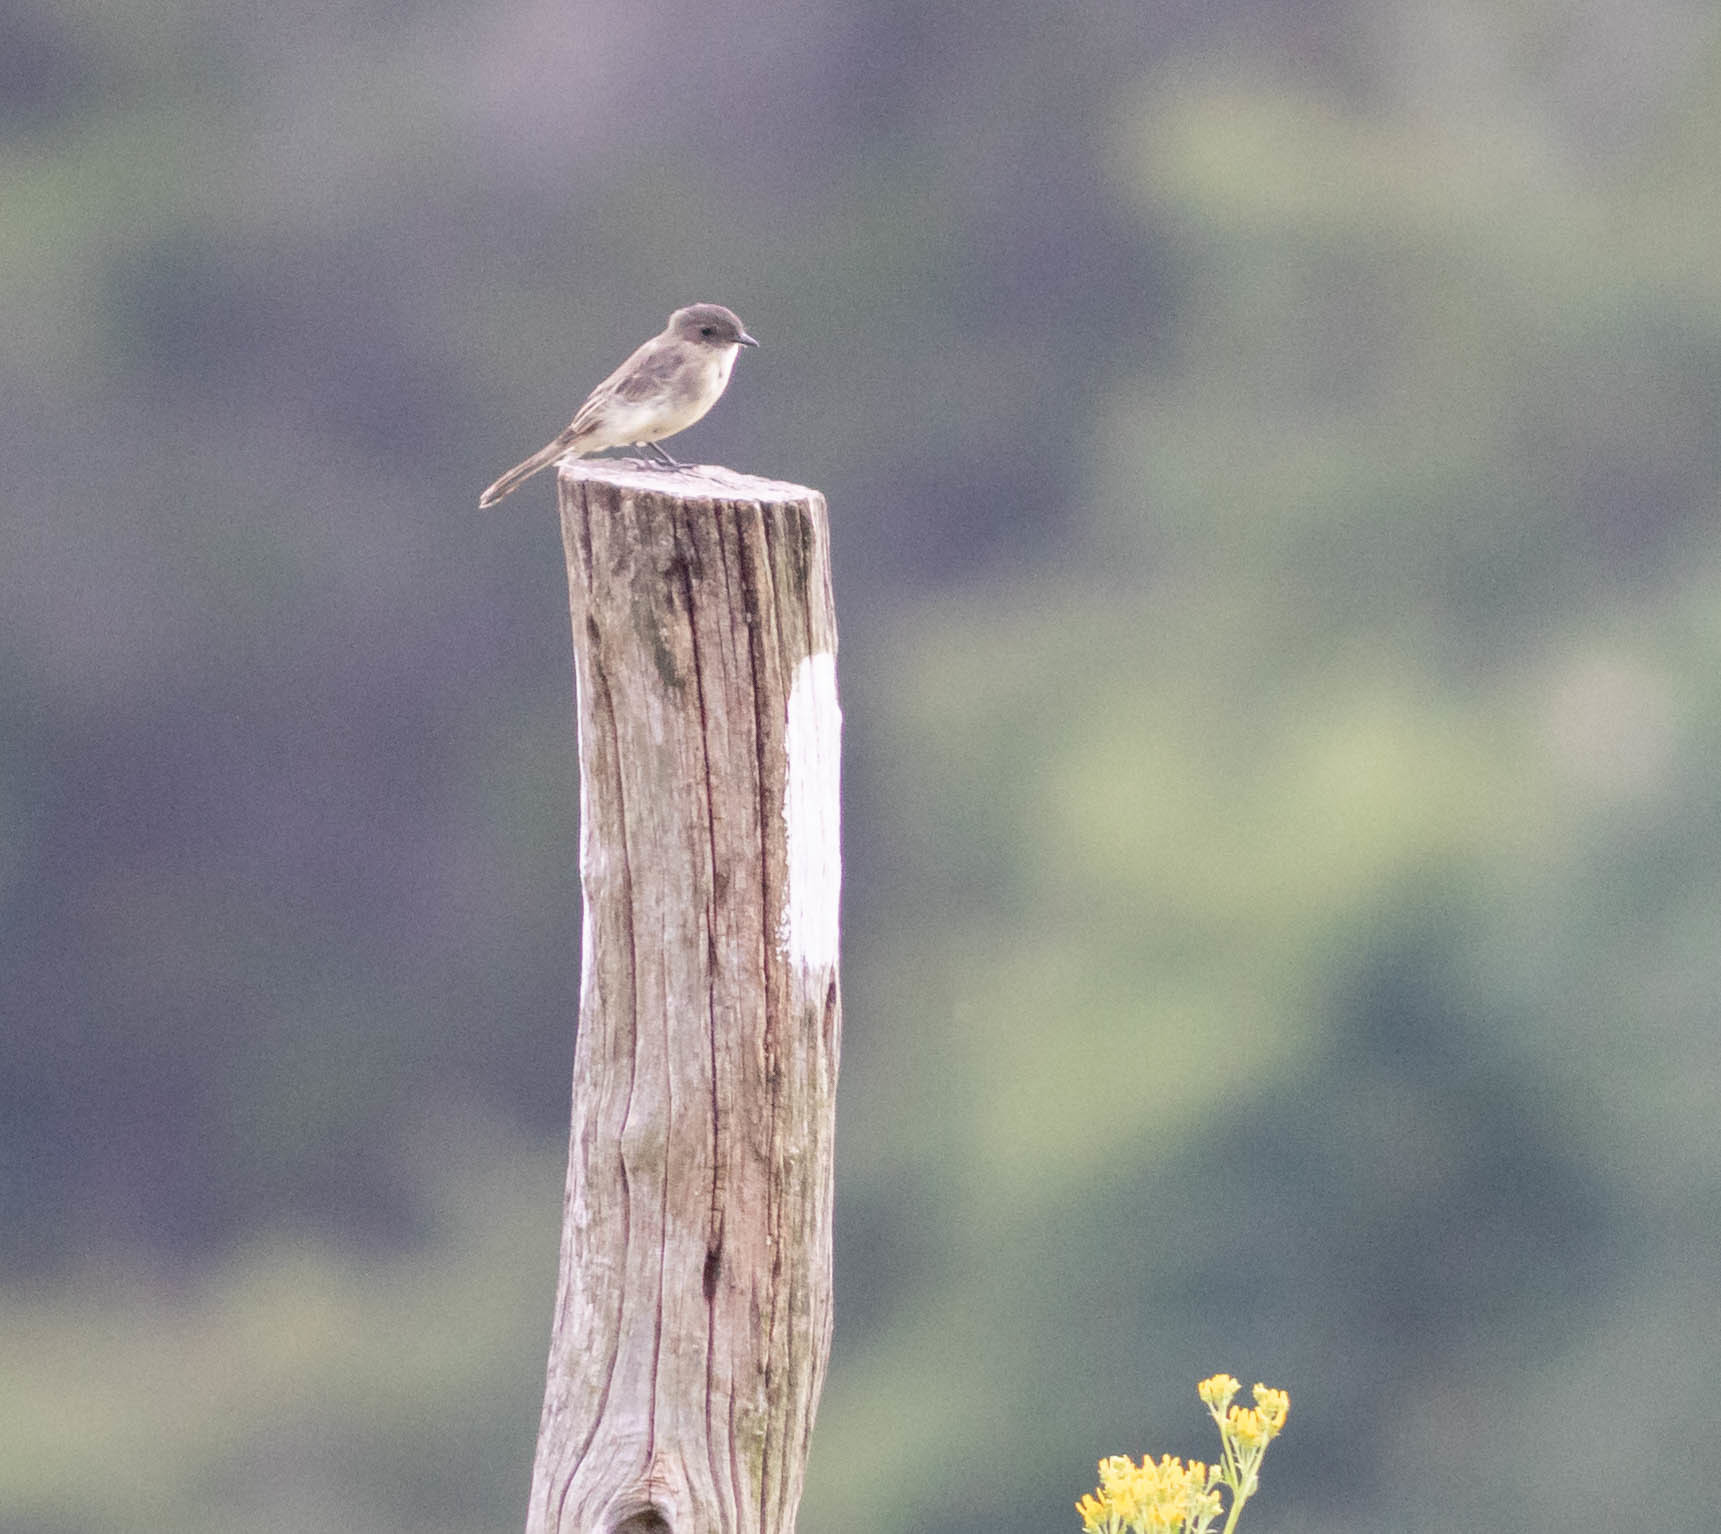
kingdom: Animalia
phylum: Chordata
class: Aves
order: Passeriformes
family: Tyrannidae
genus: Sayornis
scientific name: Sayornis phoebe
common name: Eastern phoebe
